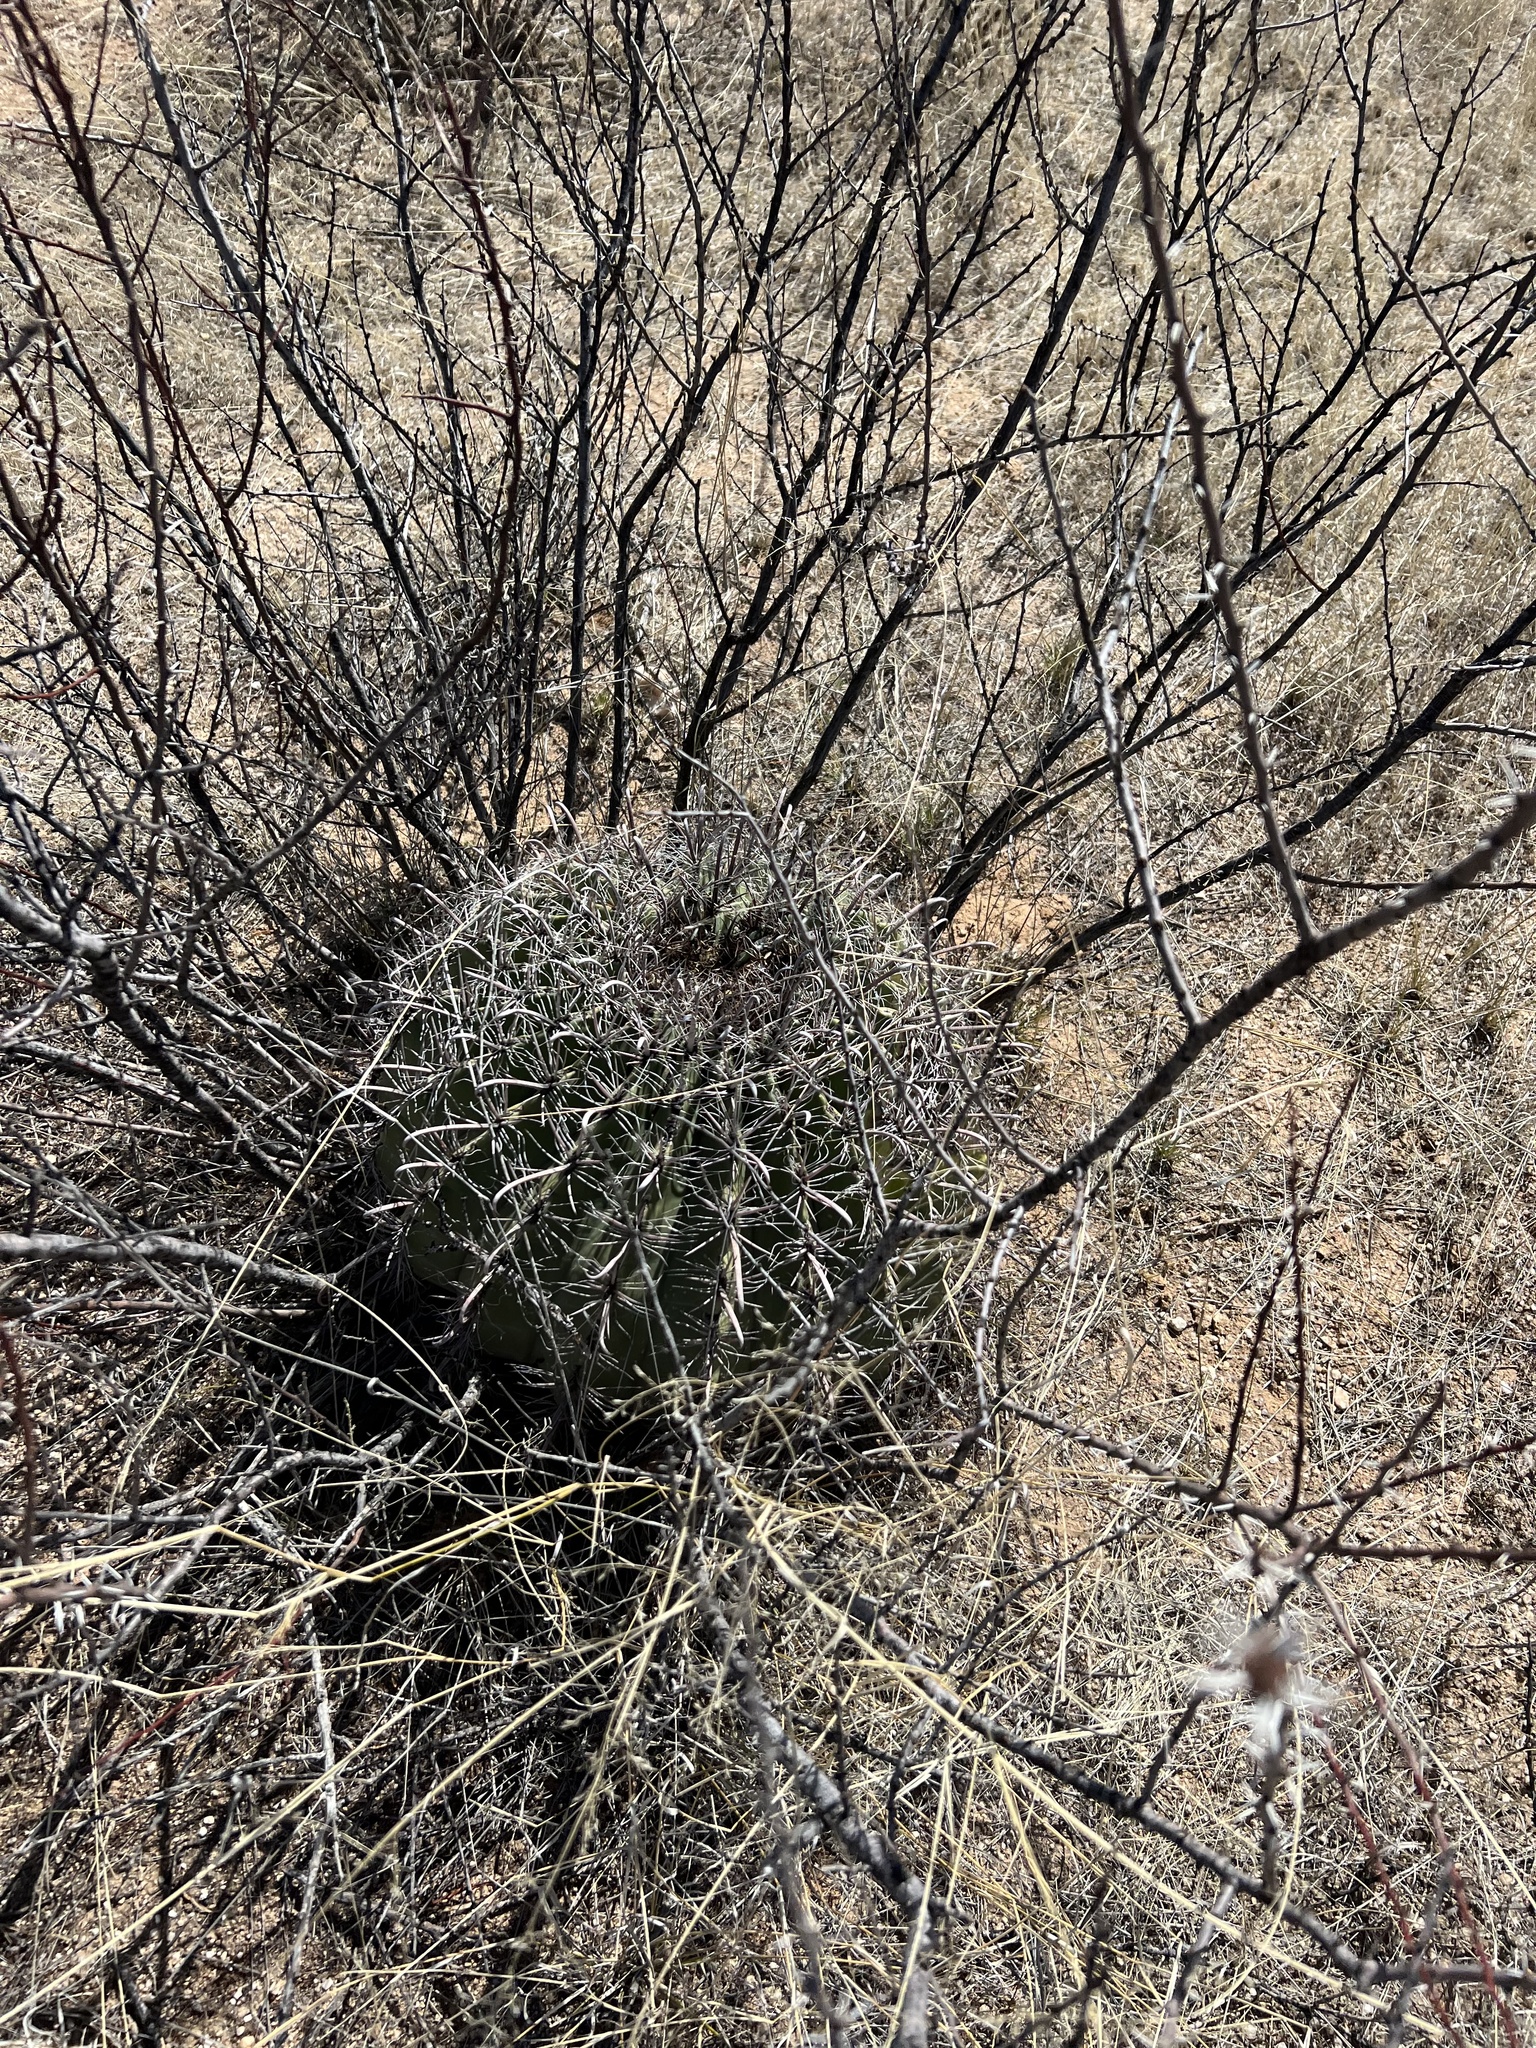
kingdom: Plantae
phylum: Tracheophyta
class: Magnoliopsida
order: Caryophyllales
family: Cactaceae
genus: Ferocactus
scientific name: Ferocactus wislizeni
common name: Candy barrel cactus
